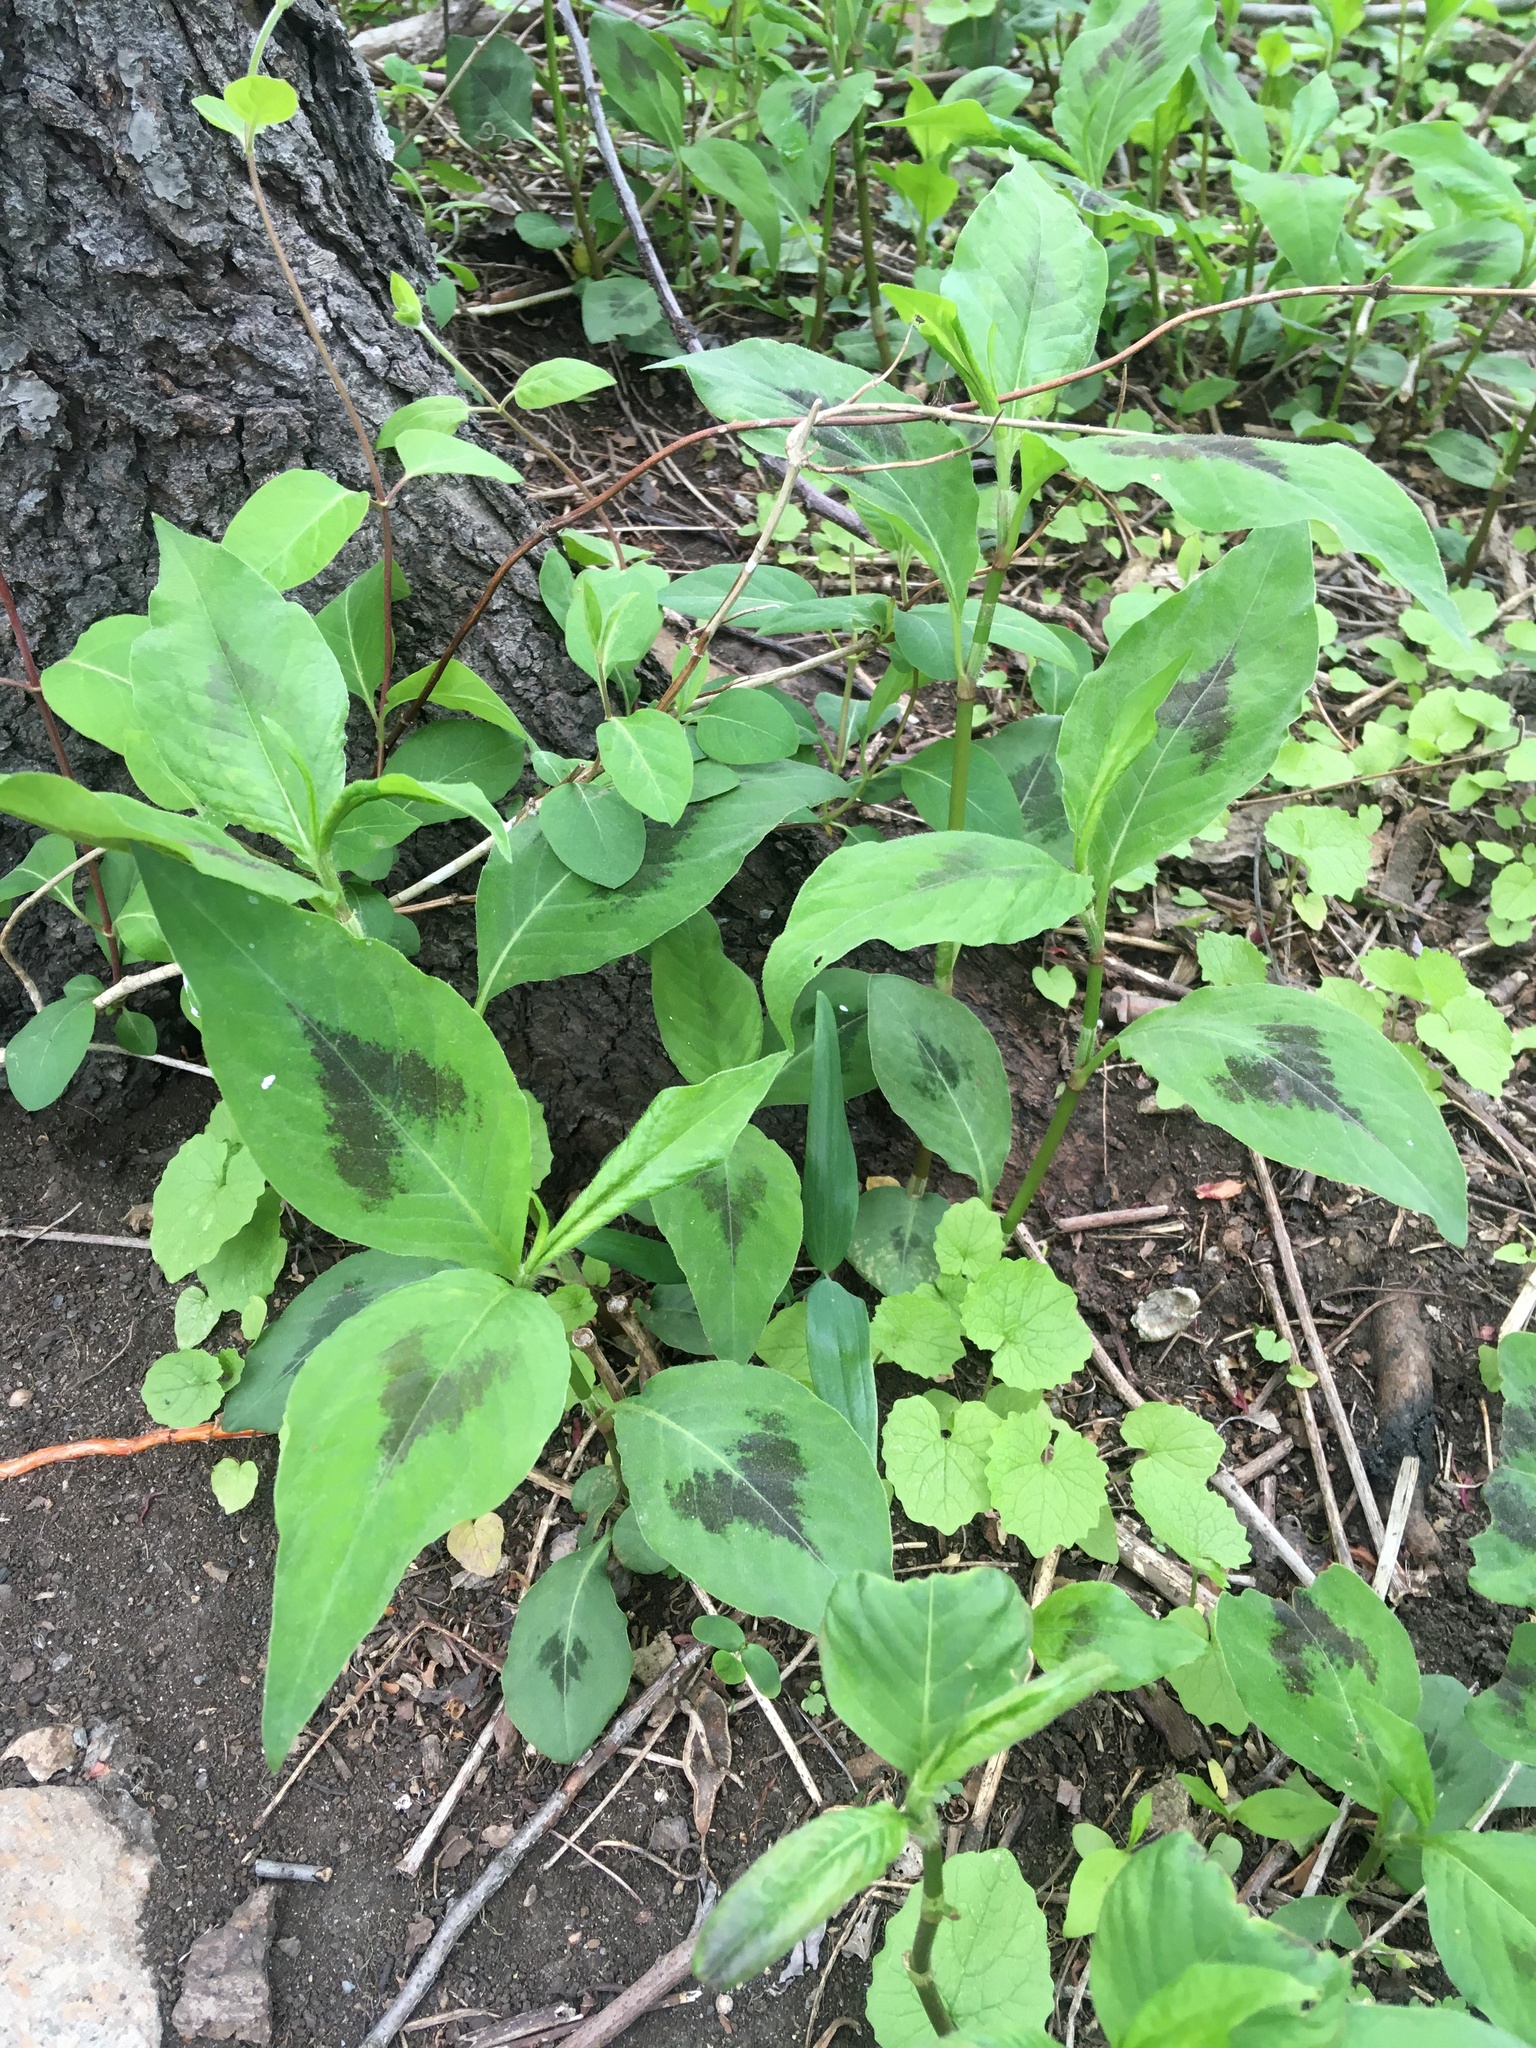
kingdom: Plantae
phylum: Tracheophyta
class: Magnoliopsida
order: Caryophyllales
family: Polygonaceae
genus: Persicaria
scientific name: Persicaria virginiana
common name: Jumpseed
